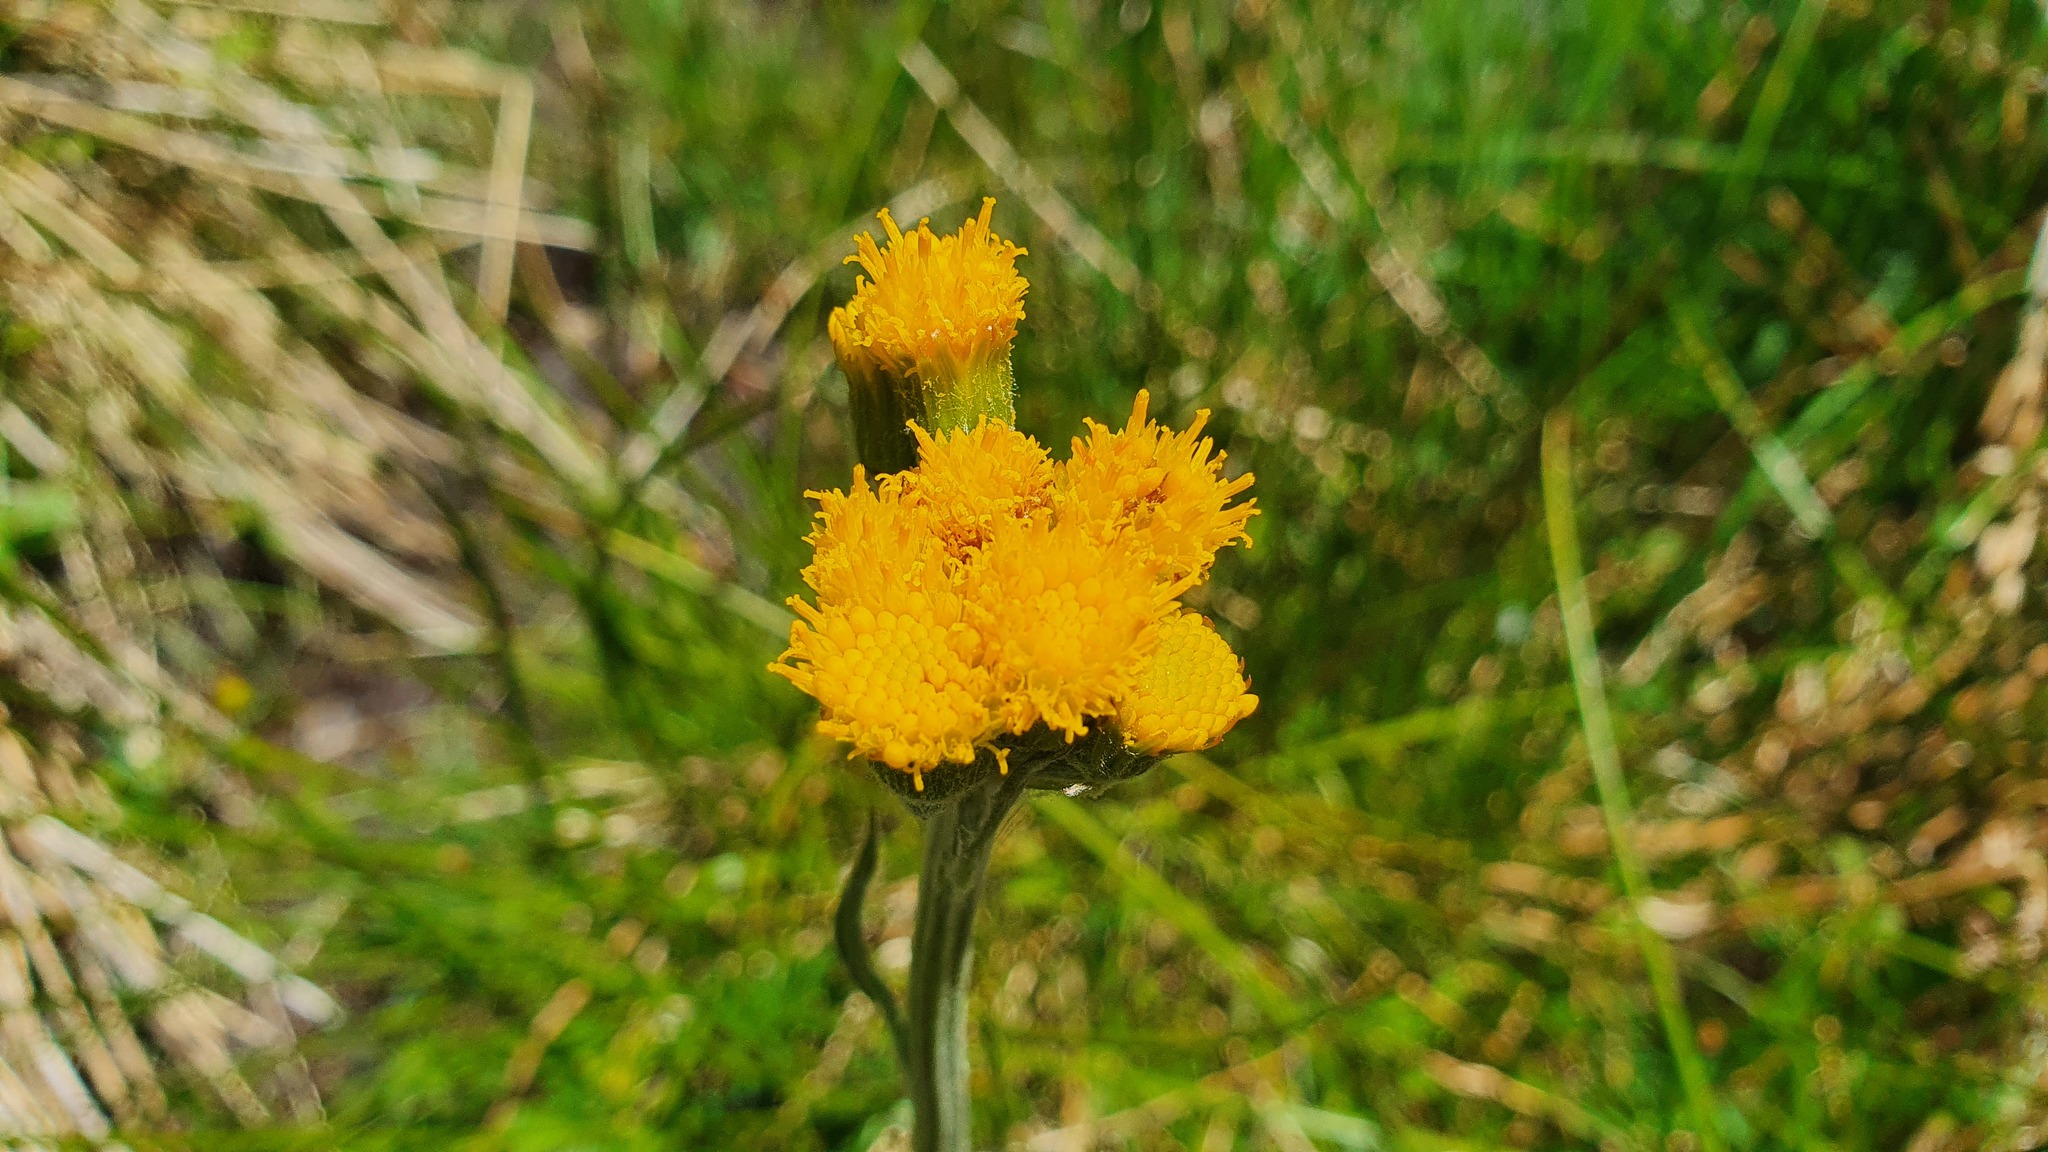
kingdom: Plantae
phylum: Tracheophyta
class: Magnoliopsida
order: Asterales
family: Asteraceae
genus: Tephroseris
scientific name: Tephroseris helenitis
